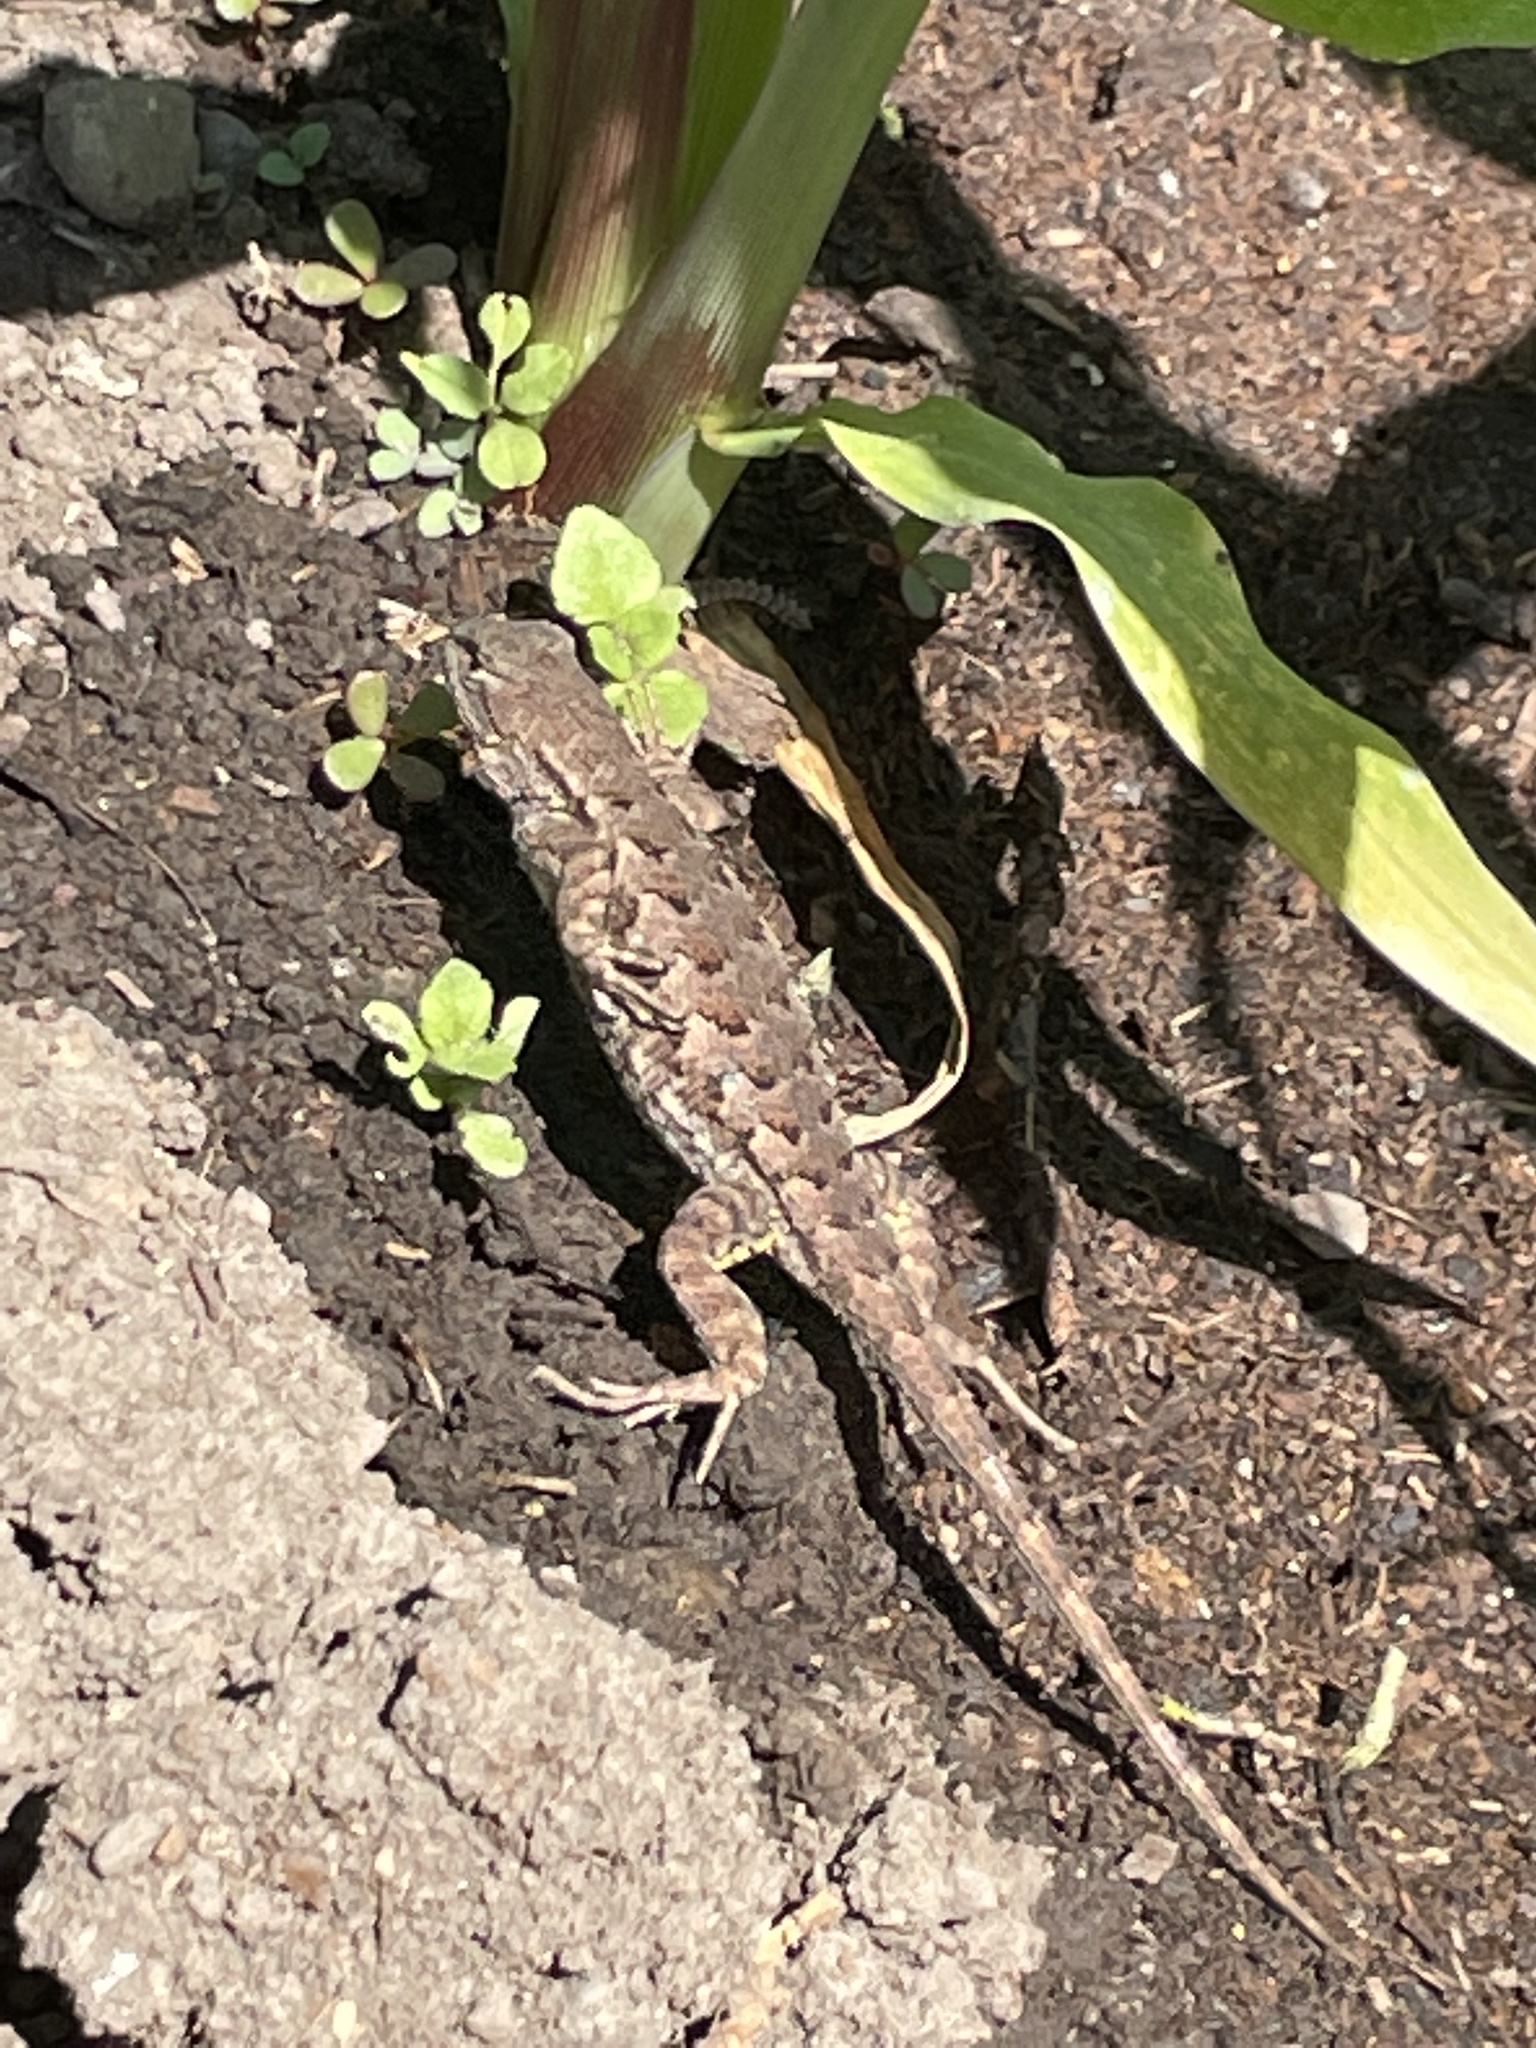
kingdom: Animalia
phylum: Chordata
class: Squamata
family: Phrynosomatidae
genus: Sceloporus
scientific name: Sceloporus occidentalis
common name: Western fence lizard
